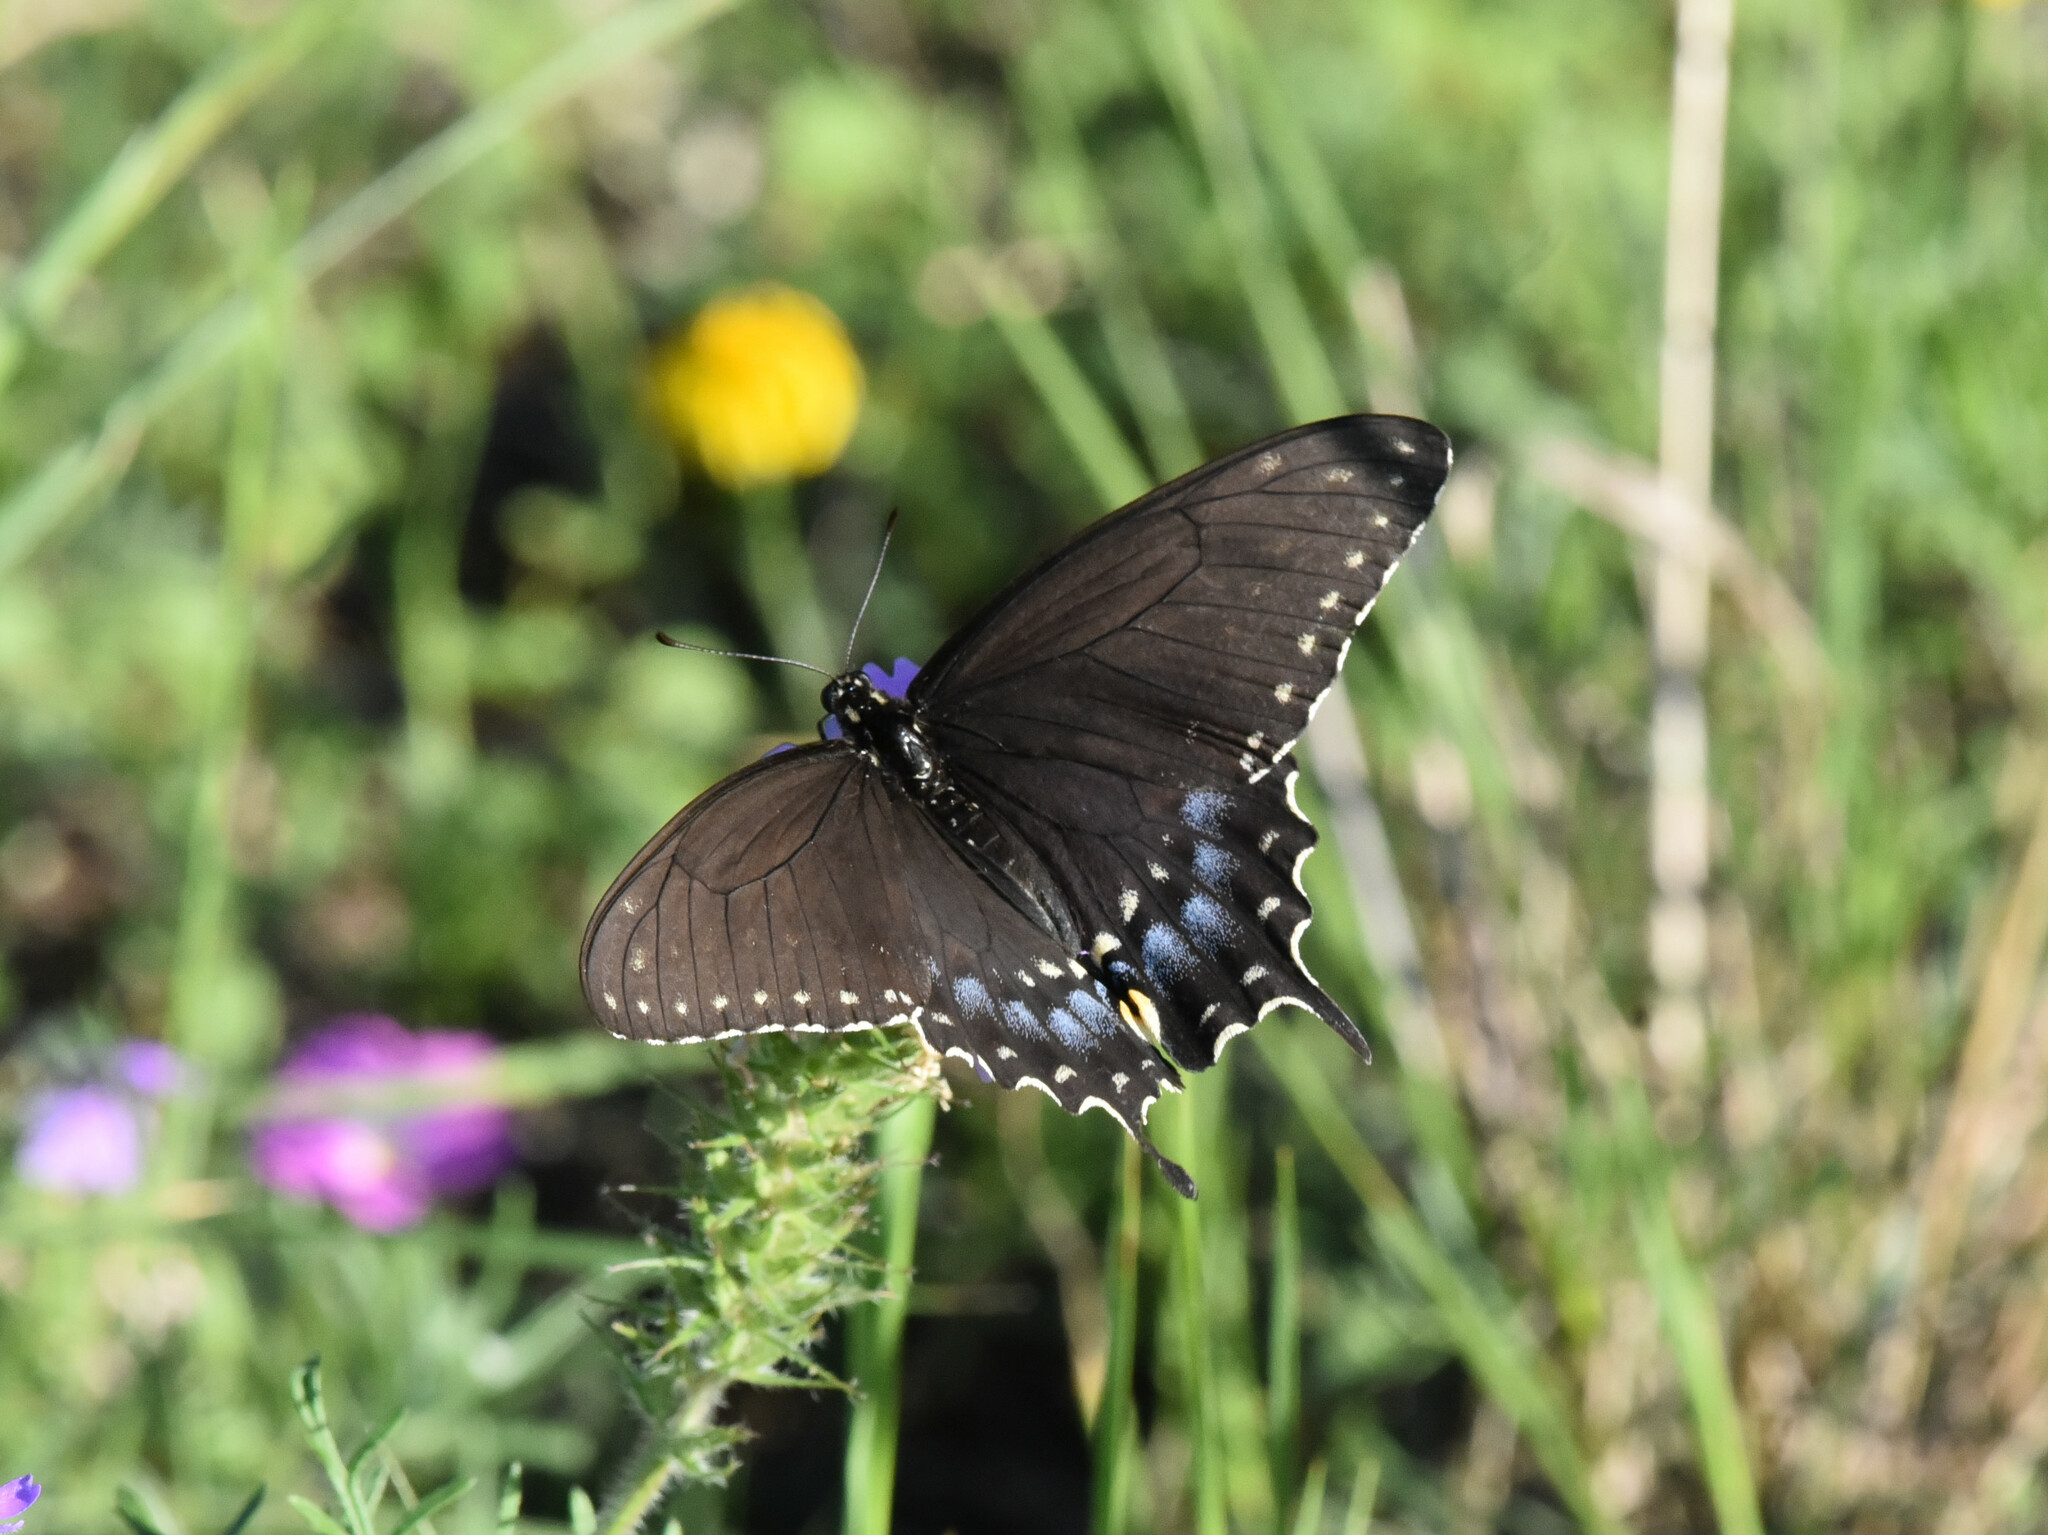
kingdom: Animalia
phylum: Arthropoda
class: Insecta
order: Lepidoptera
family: Papilionidae
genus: Papilio
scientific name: Papilio polyxenes
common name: Black swallowtail
